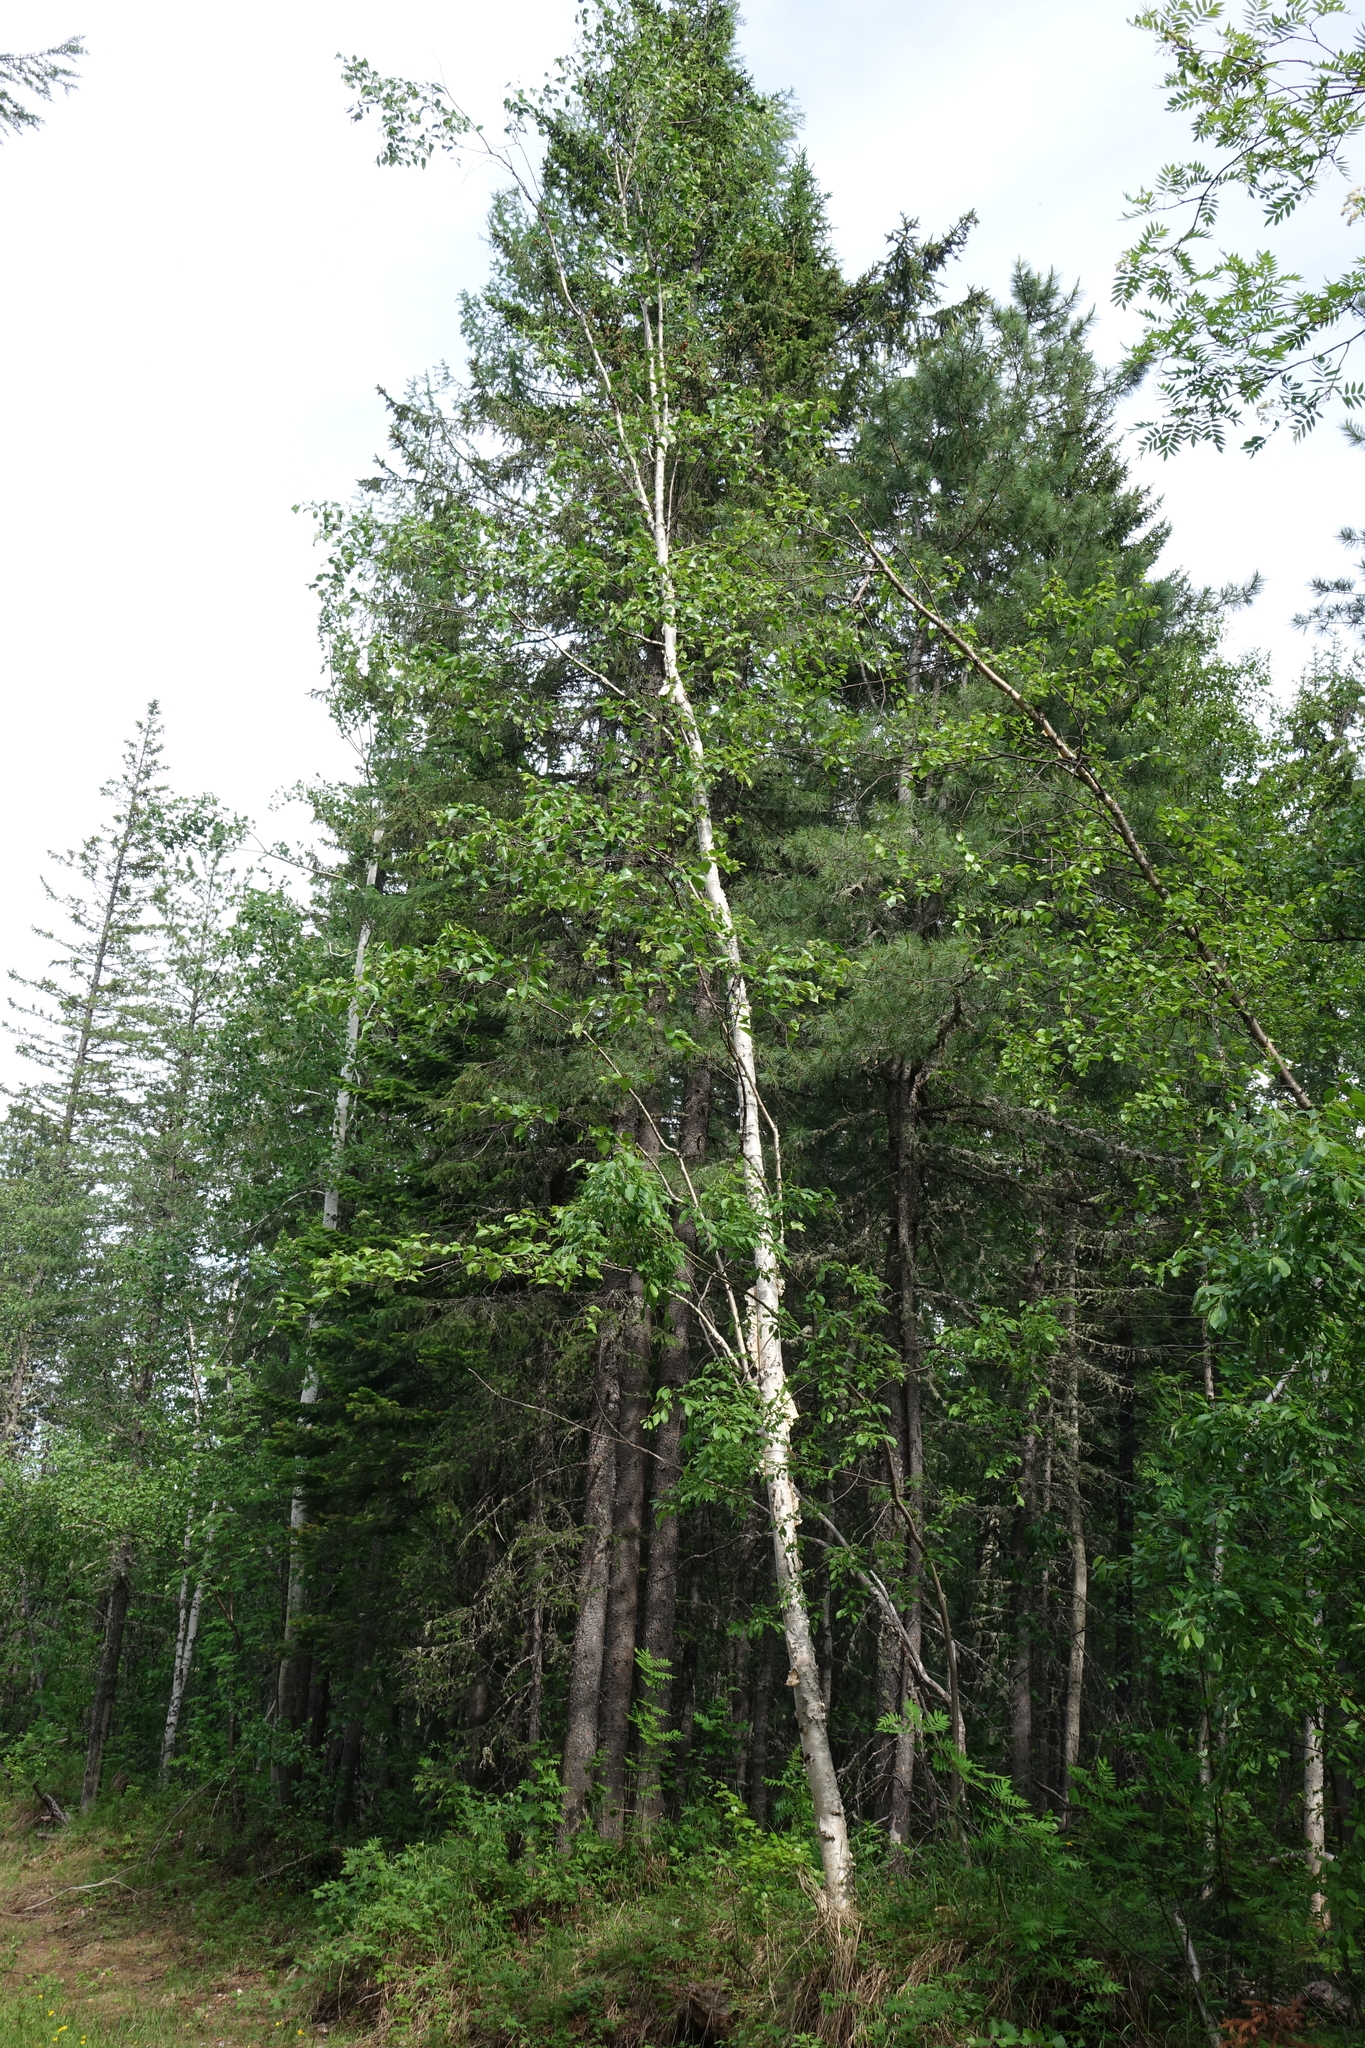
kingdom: Plantae
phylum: Tracheophyta
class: Magnoliopsida
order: Fagales
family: Betulaceae
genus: Betula
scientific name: Betula pubescens
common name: Downy birch
